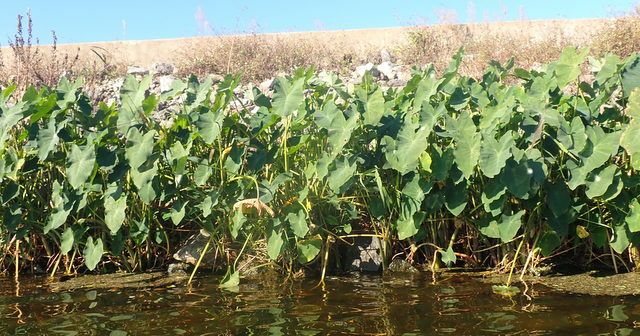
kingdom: Plantae
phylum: Tracheophyta
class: Liliopsida
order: Alismatales
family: Araceae
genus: Colocasia
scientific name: Colocasia esculenta
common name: Taro
